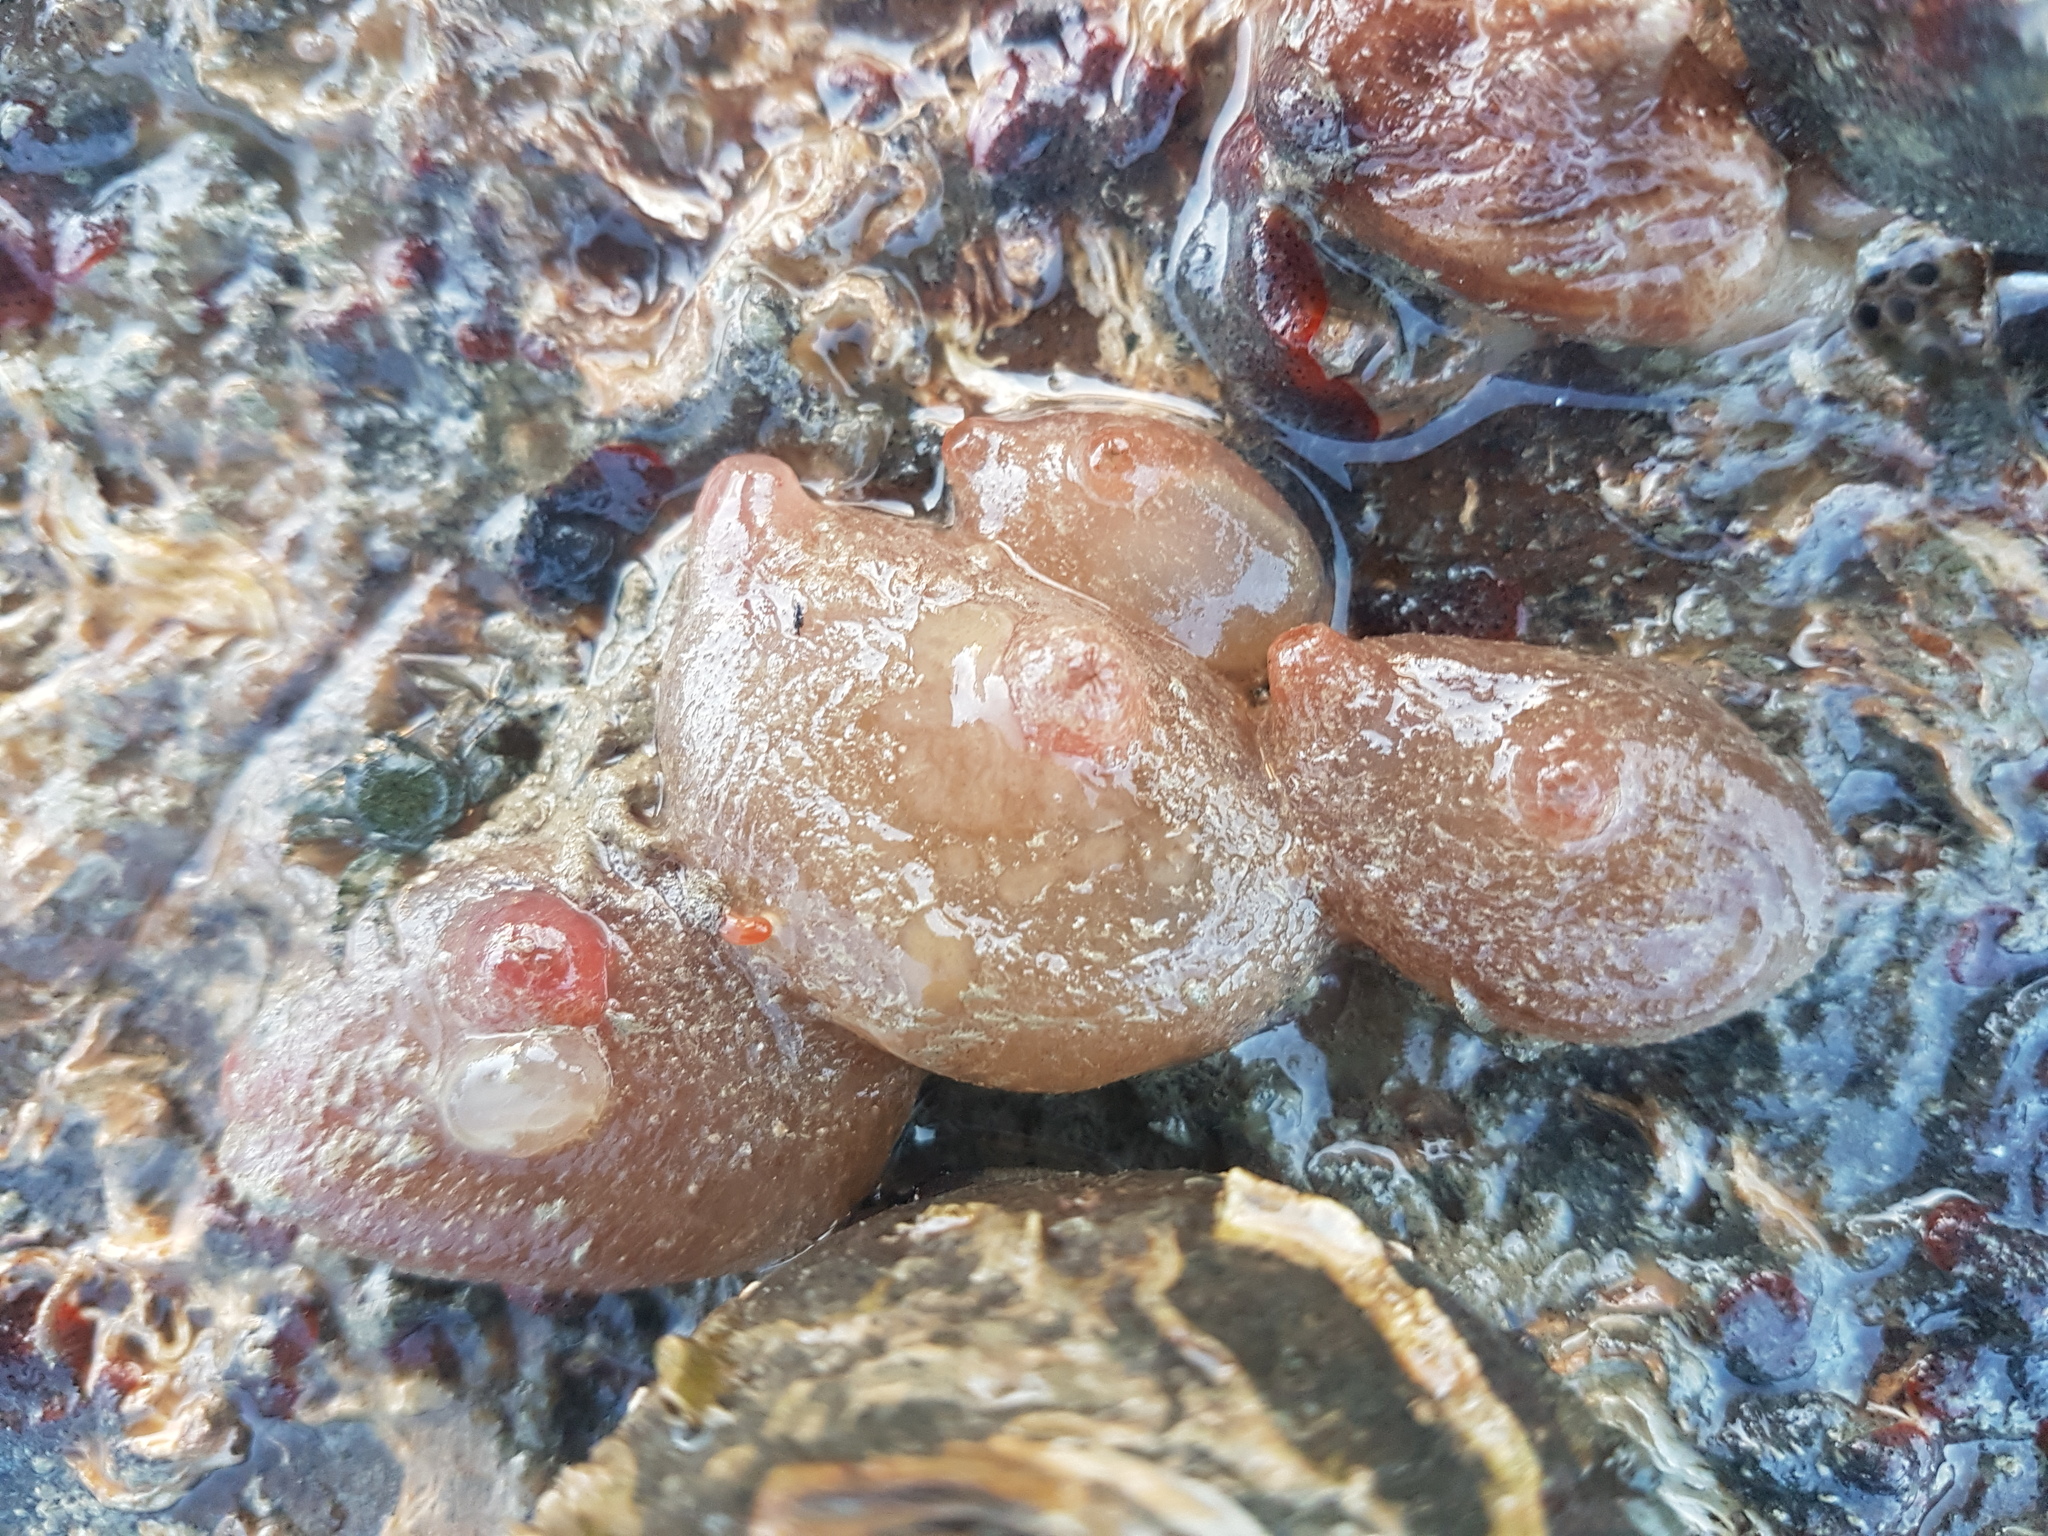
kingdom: Animalia
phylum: Chordata
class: Ascidiacea
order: Phlebobranchia
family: Corellidae
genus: Corella
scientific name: Corella eumyota
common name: Orange-tipped sea squirt
